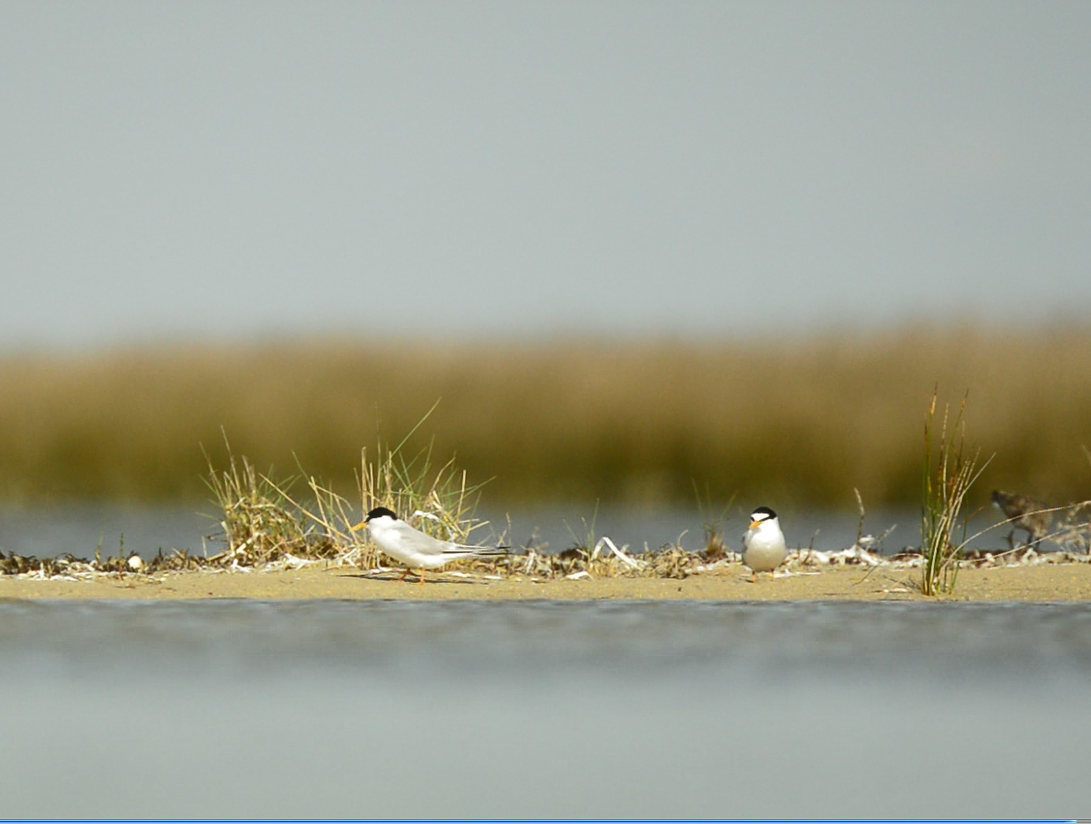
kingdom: Animalia
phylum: Chordata
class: Aves
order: Charadriiformes
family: Laridae
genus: Sternula
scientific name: Sternula albifrons
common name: Little tern
